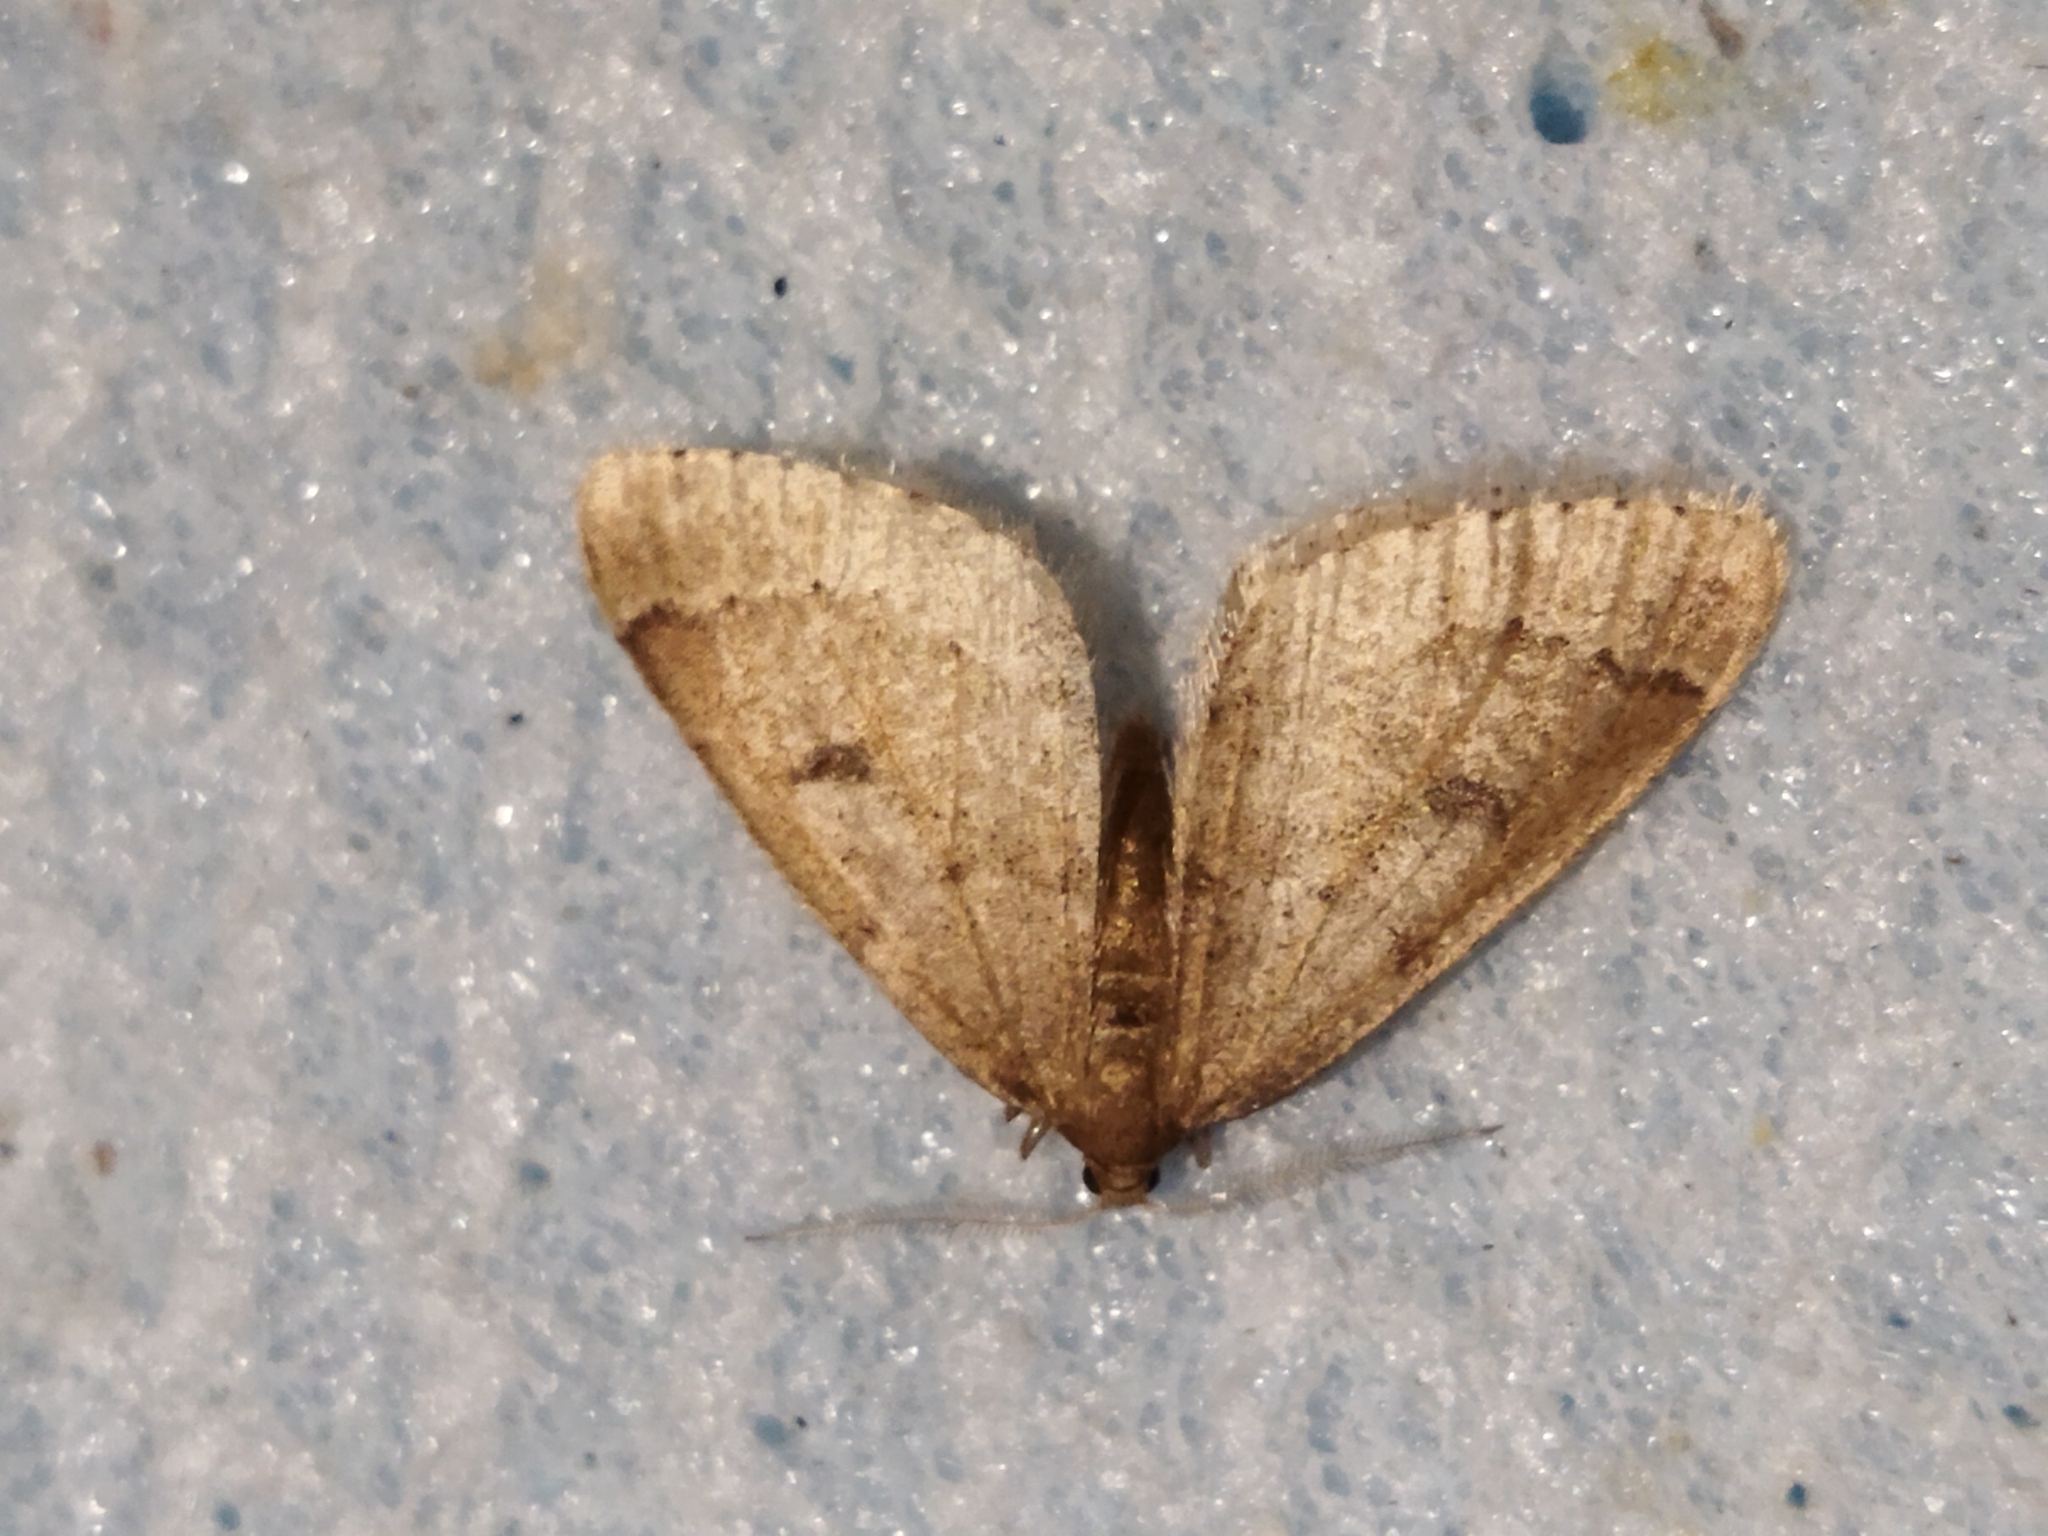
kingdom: Animalia
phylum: Arthropoda
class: Insecta
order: Lepidoptera
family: Geometridae
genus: Theria
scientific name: Theria rupicapraria
